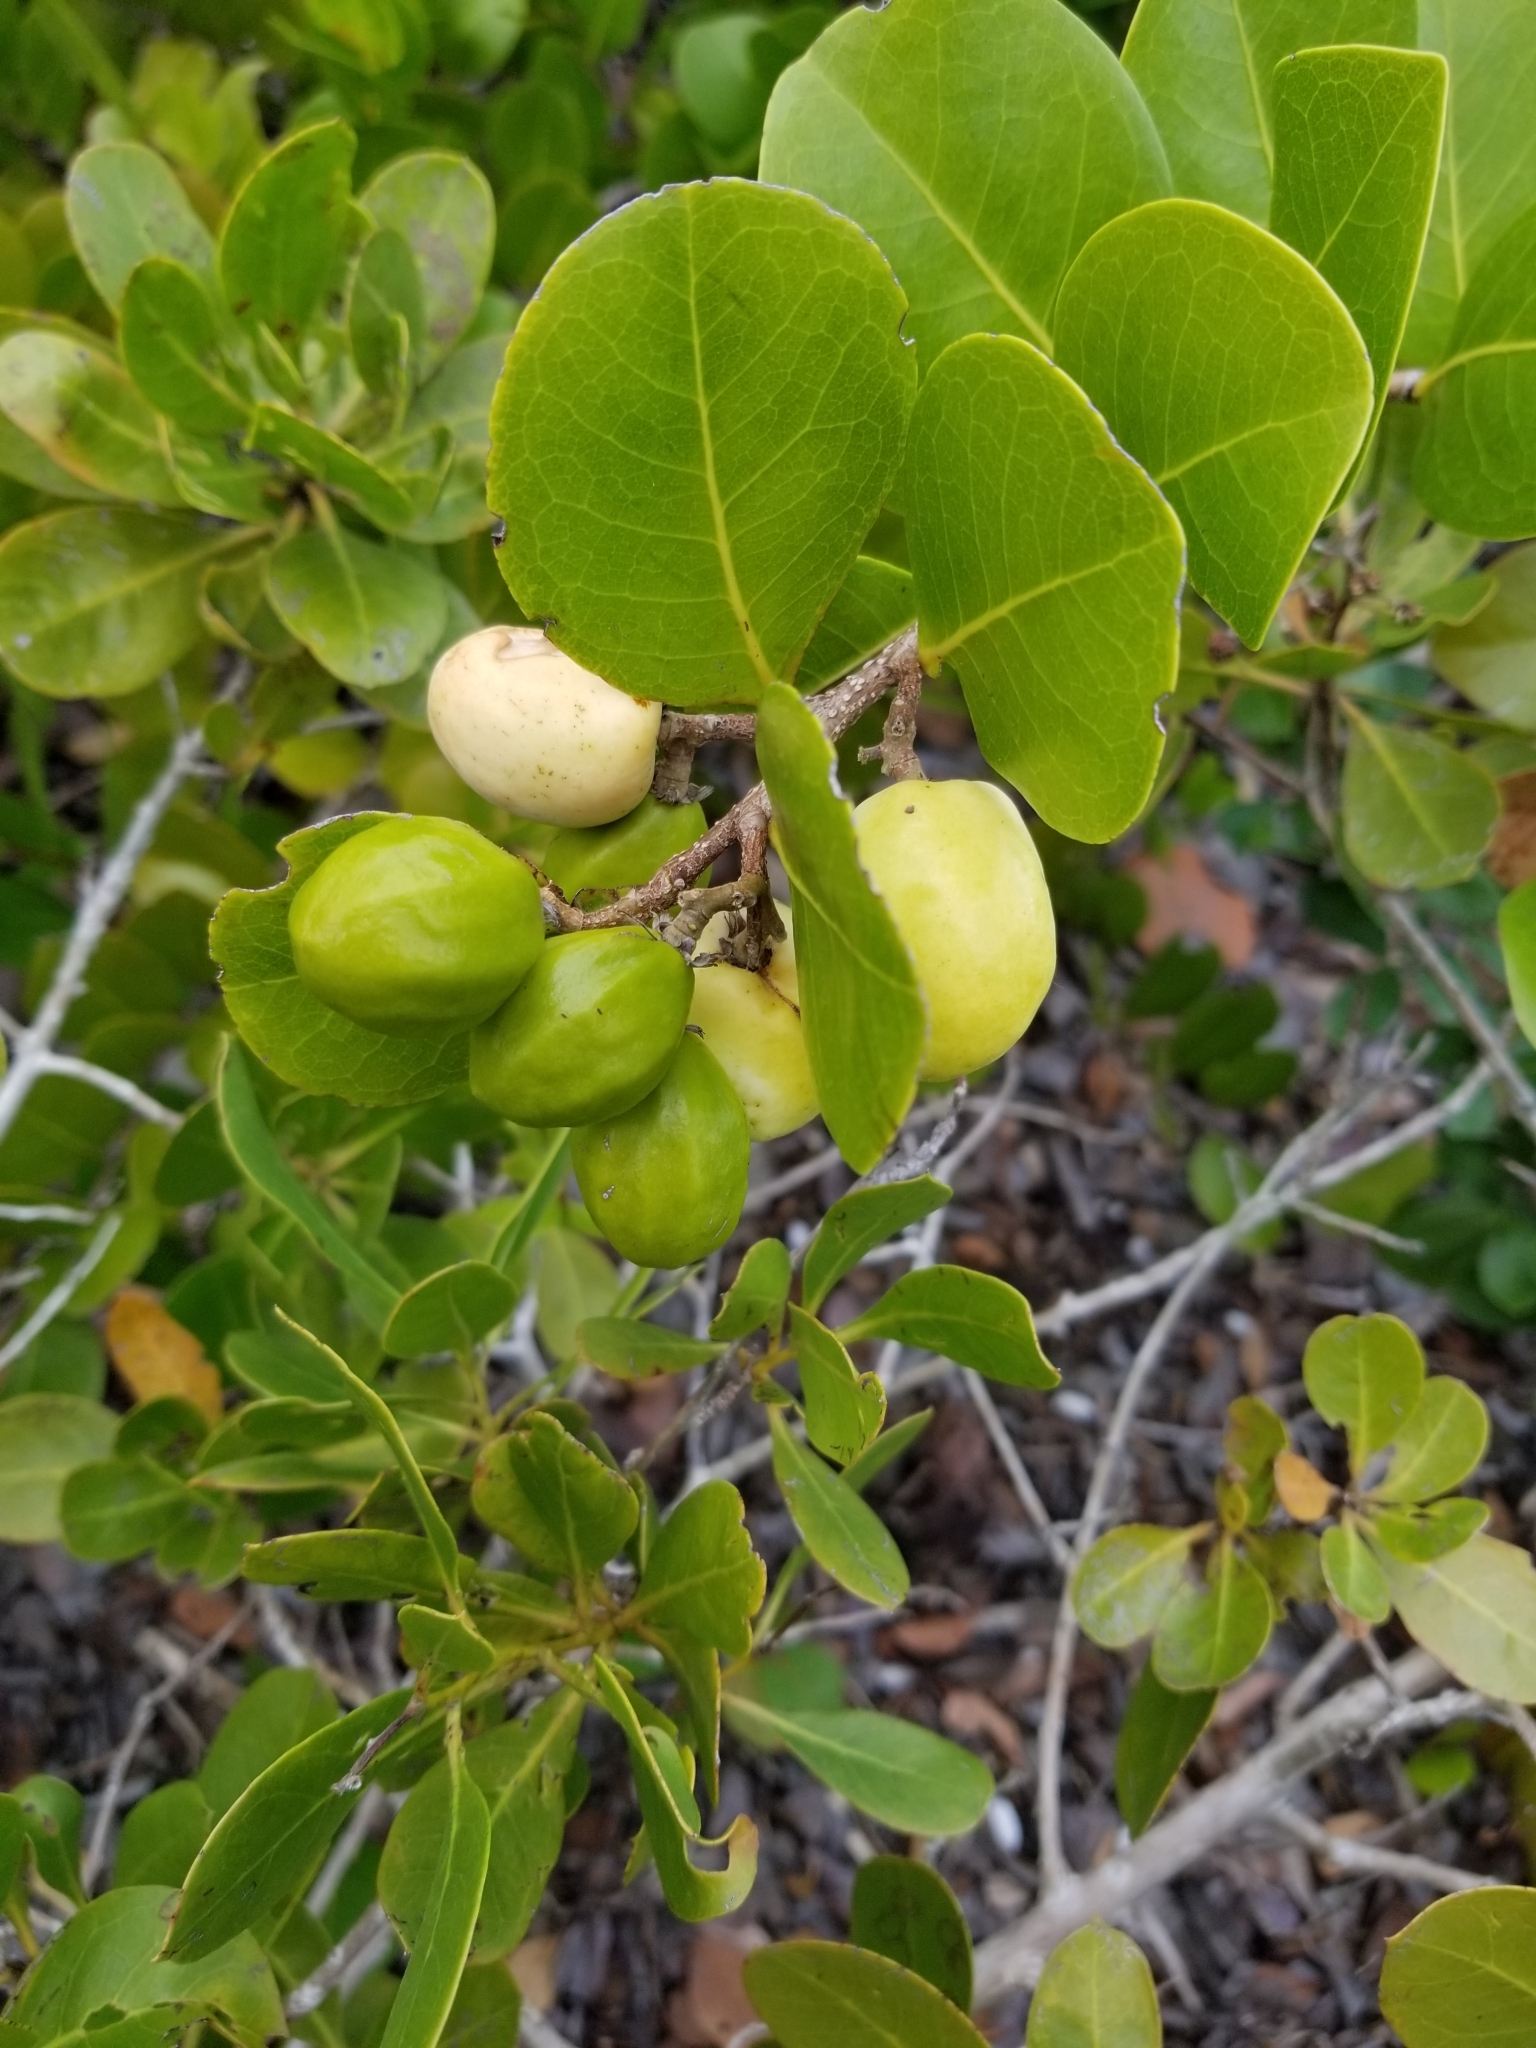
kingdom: Plantae
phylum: Tracheophyta
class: Magnoliopsida
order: Malpighiales
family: Chrysobalanaceae
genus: Chrysobalanus
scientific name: Chrysobalanus icaco
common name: Coco plum
